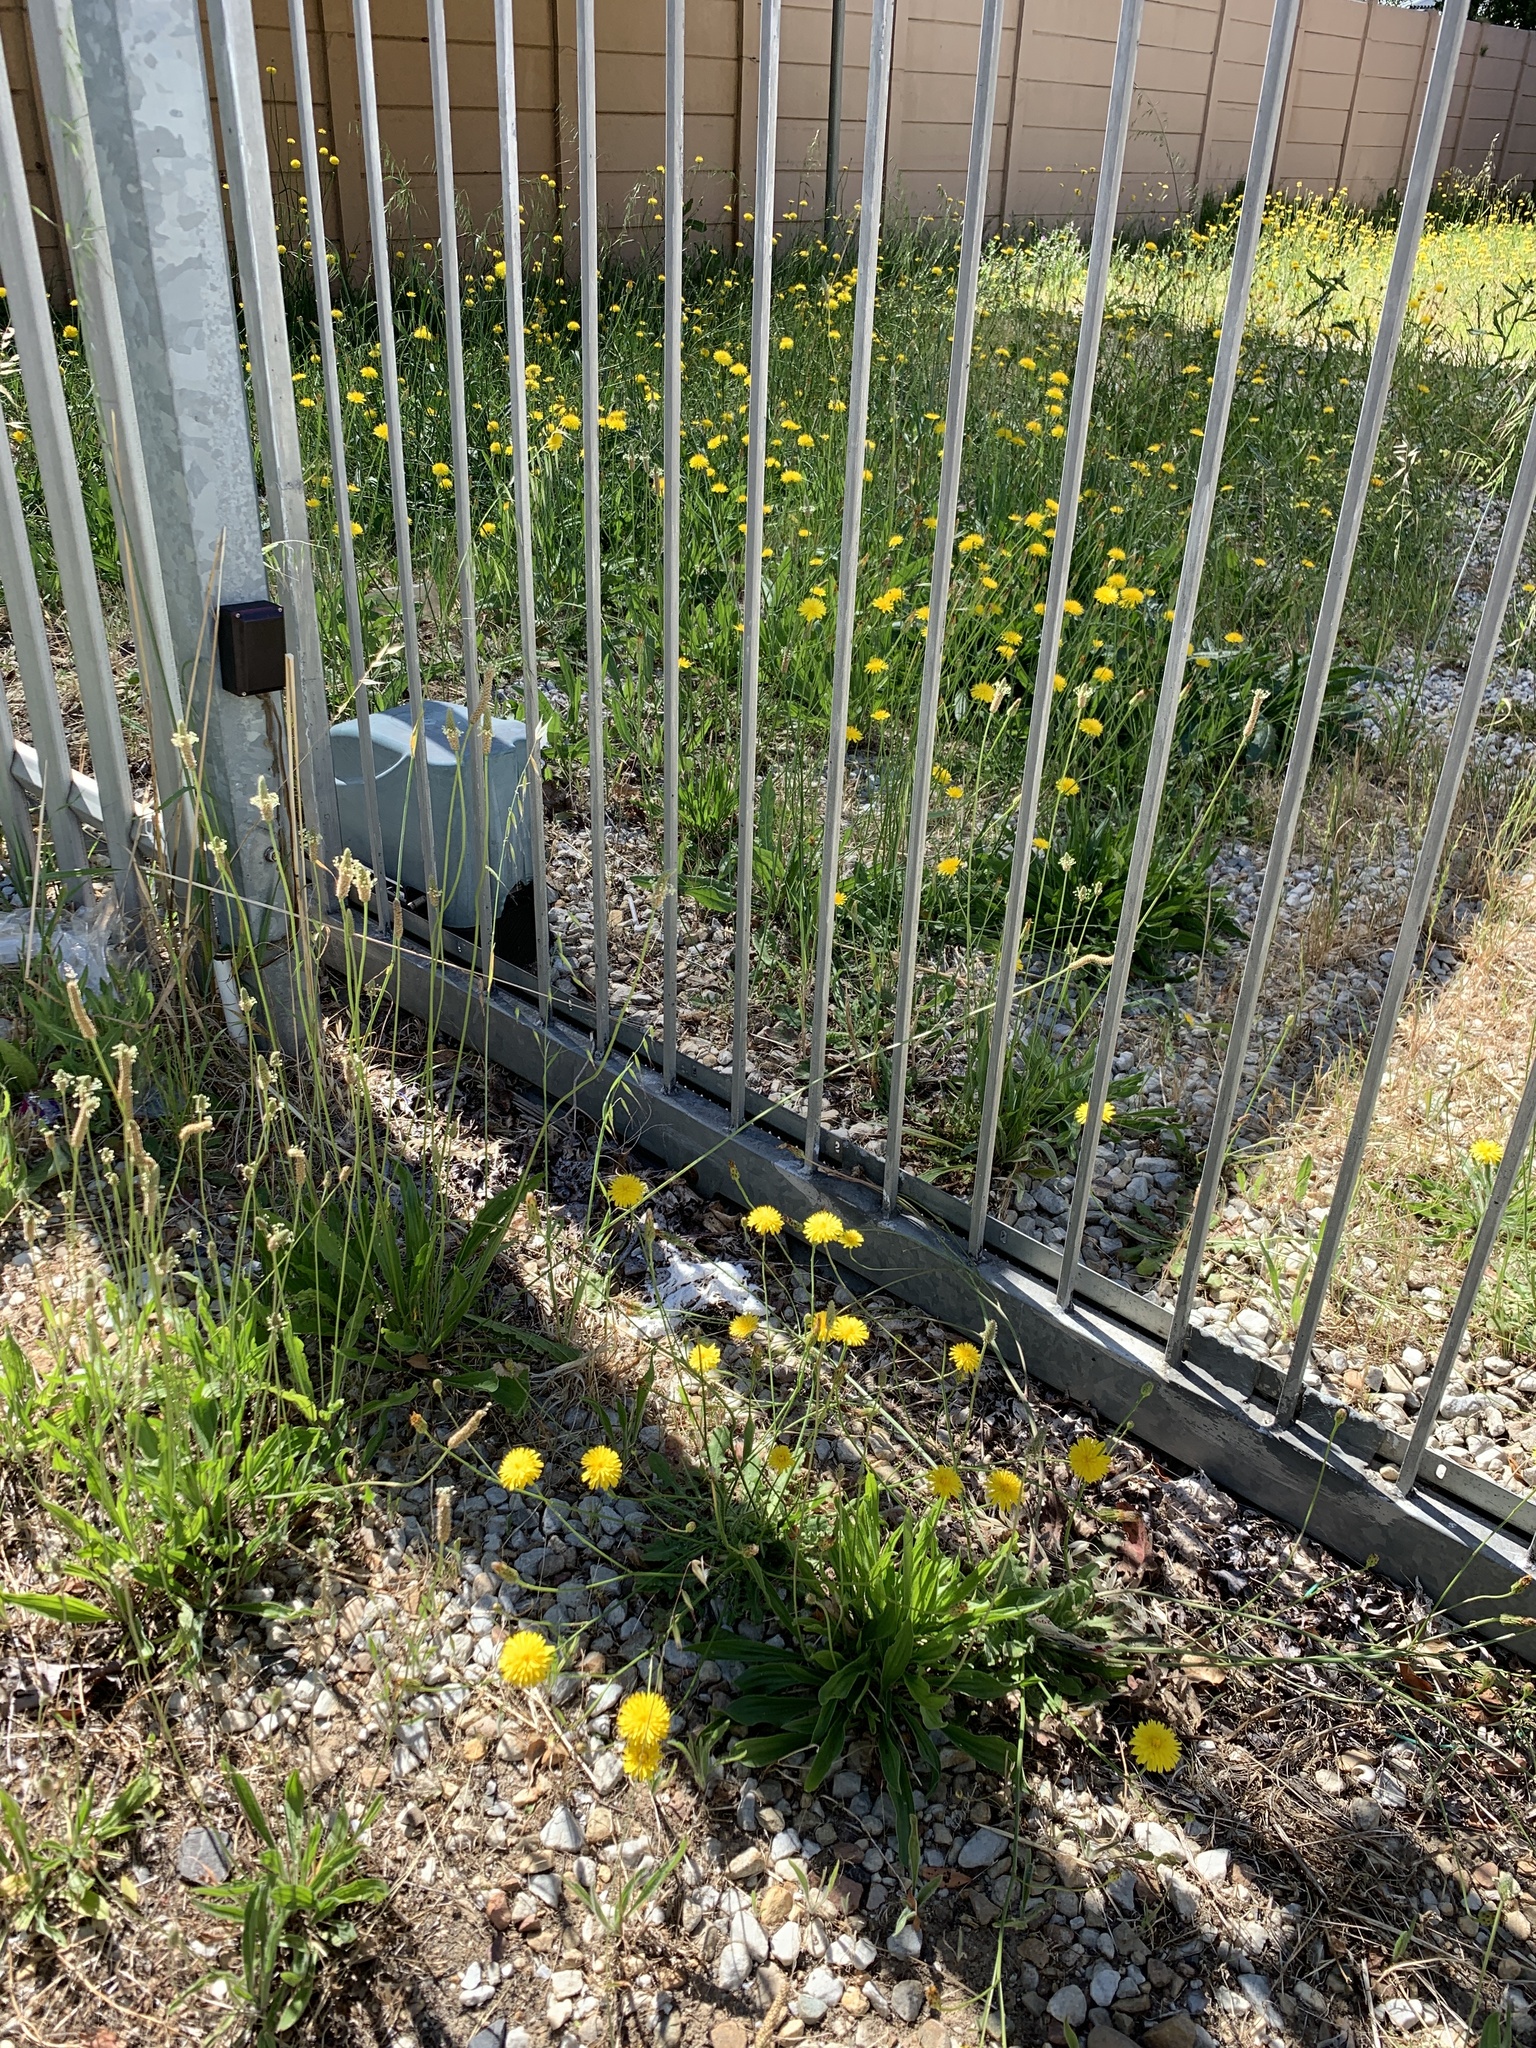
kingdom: Plantae
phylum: Tracheophyta
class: Magnoliopsida
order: Asterales
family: Asteraceae
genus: Hypochaeris
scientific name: Hypochaeris radicata
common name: Flatweed
